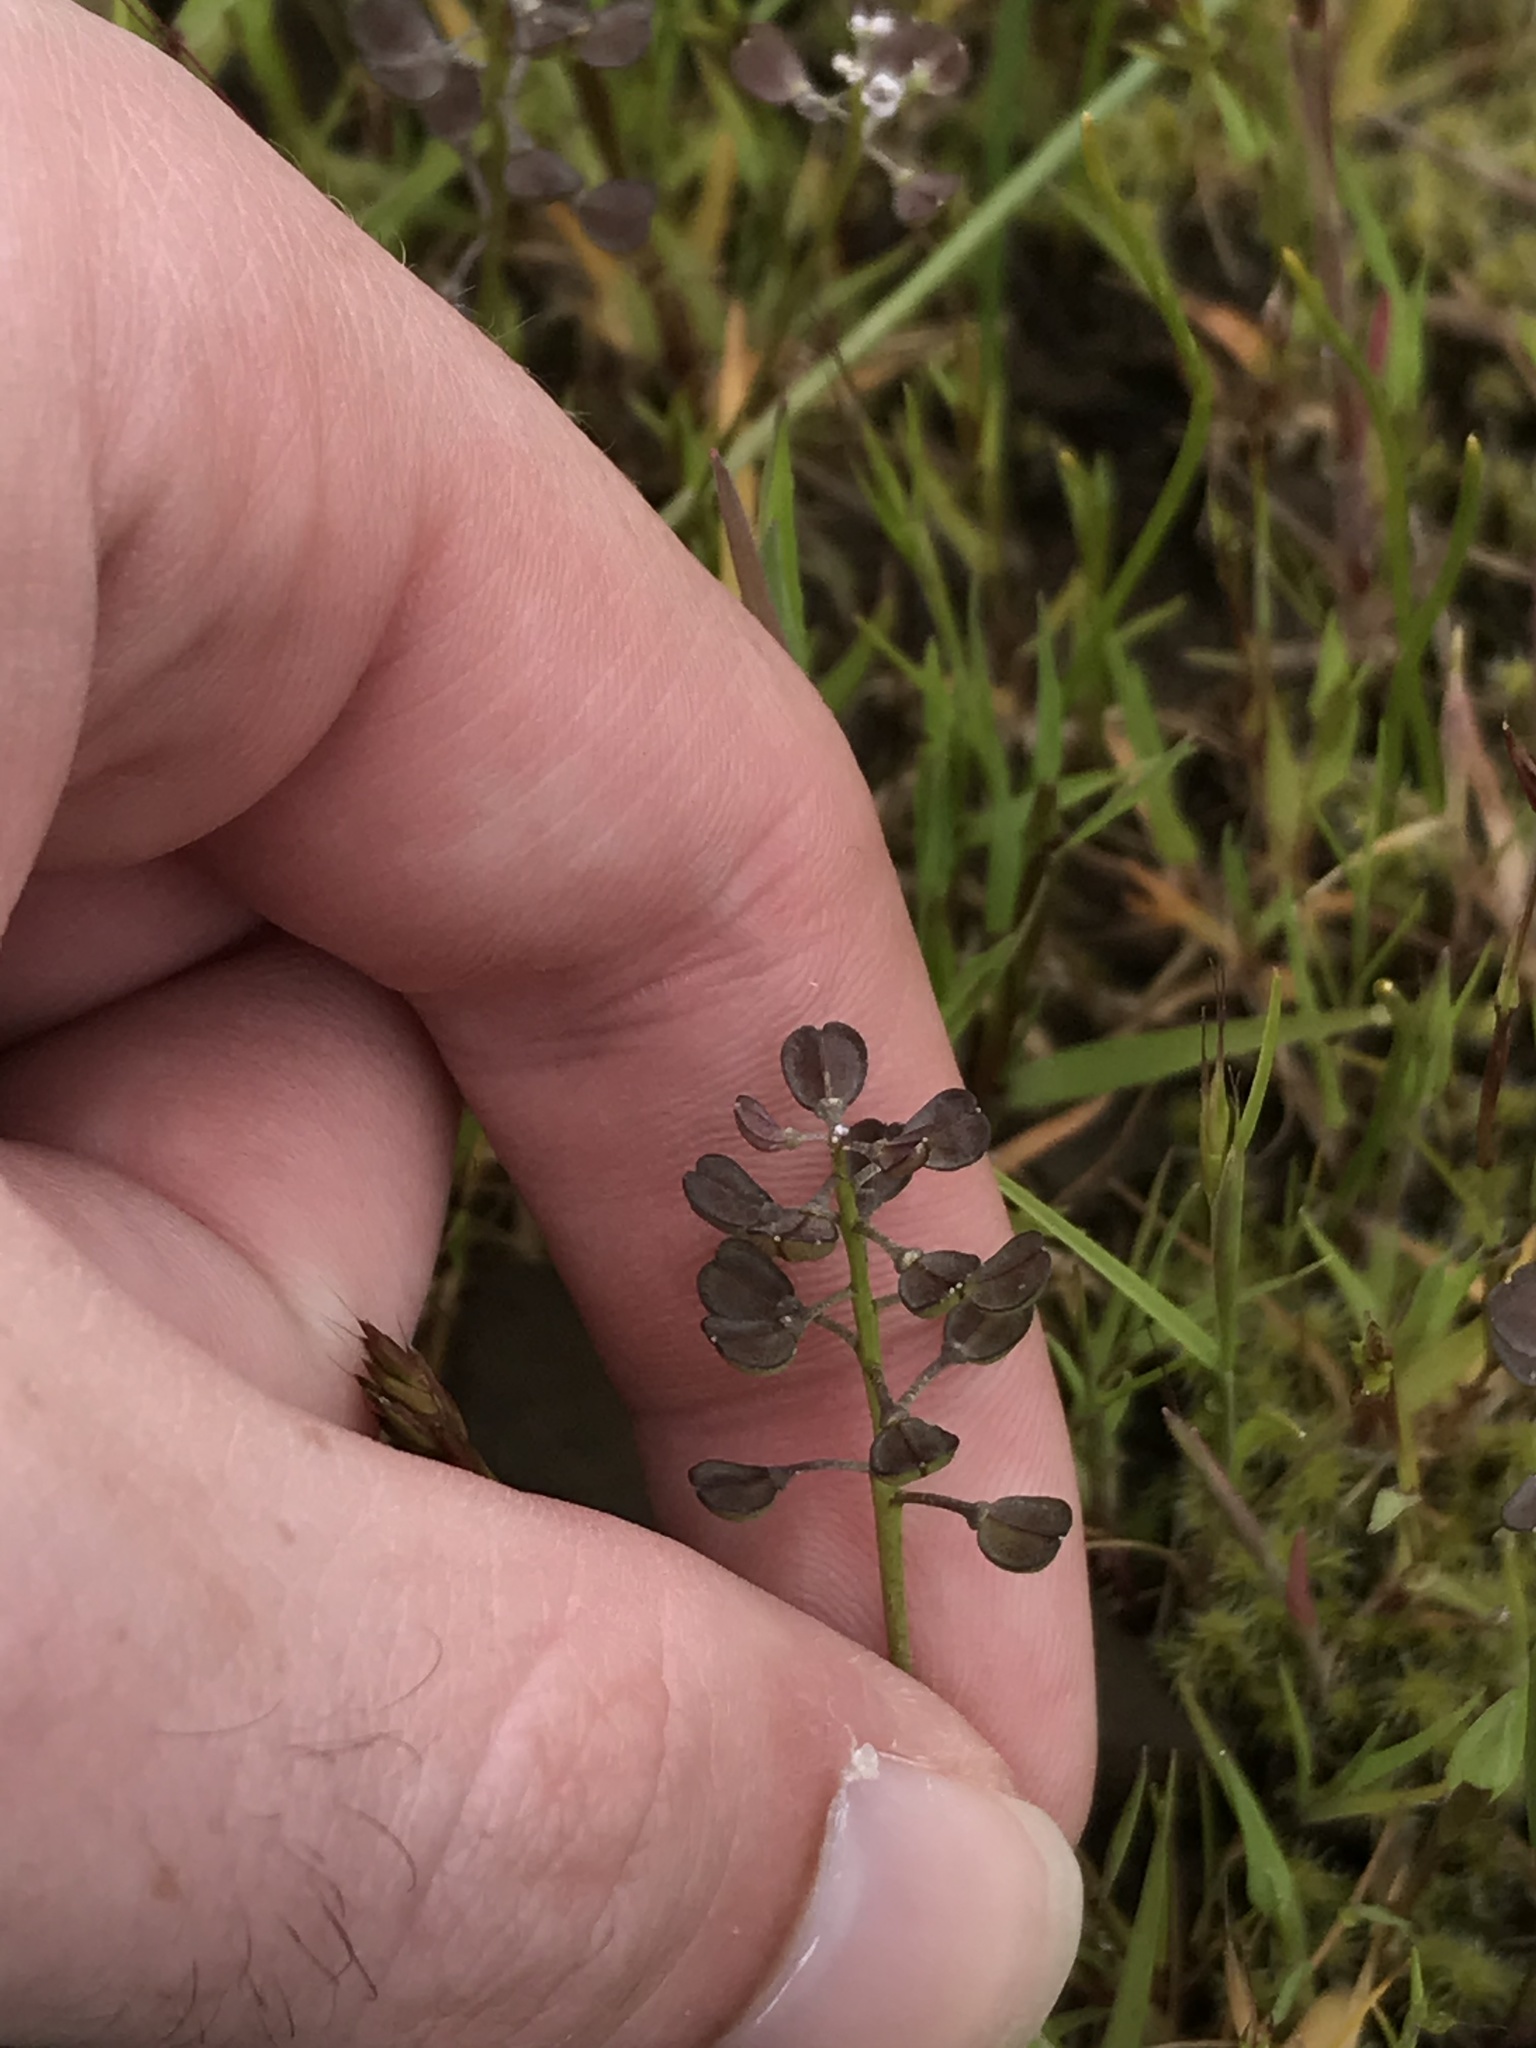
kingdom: Plantae
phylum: Tracheophyta
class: Magnoliopsida
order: Brassicales
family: Brassicaceae
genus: Teesdalia
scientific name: Teesdalia nudicaulis
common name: Shepherd's cress
